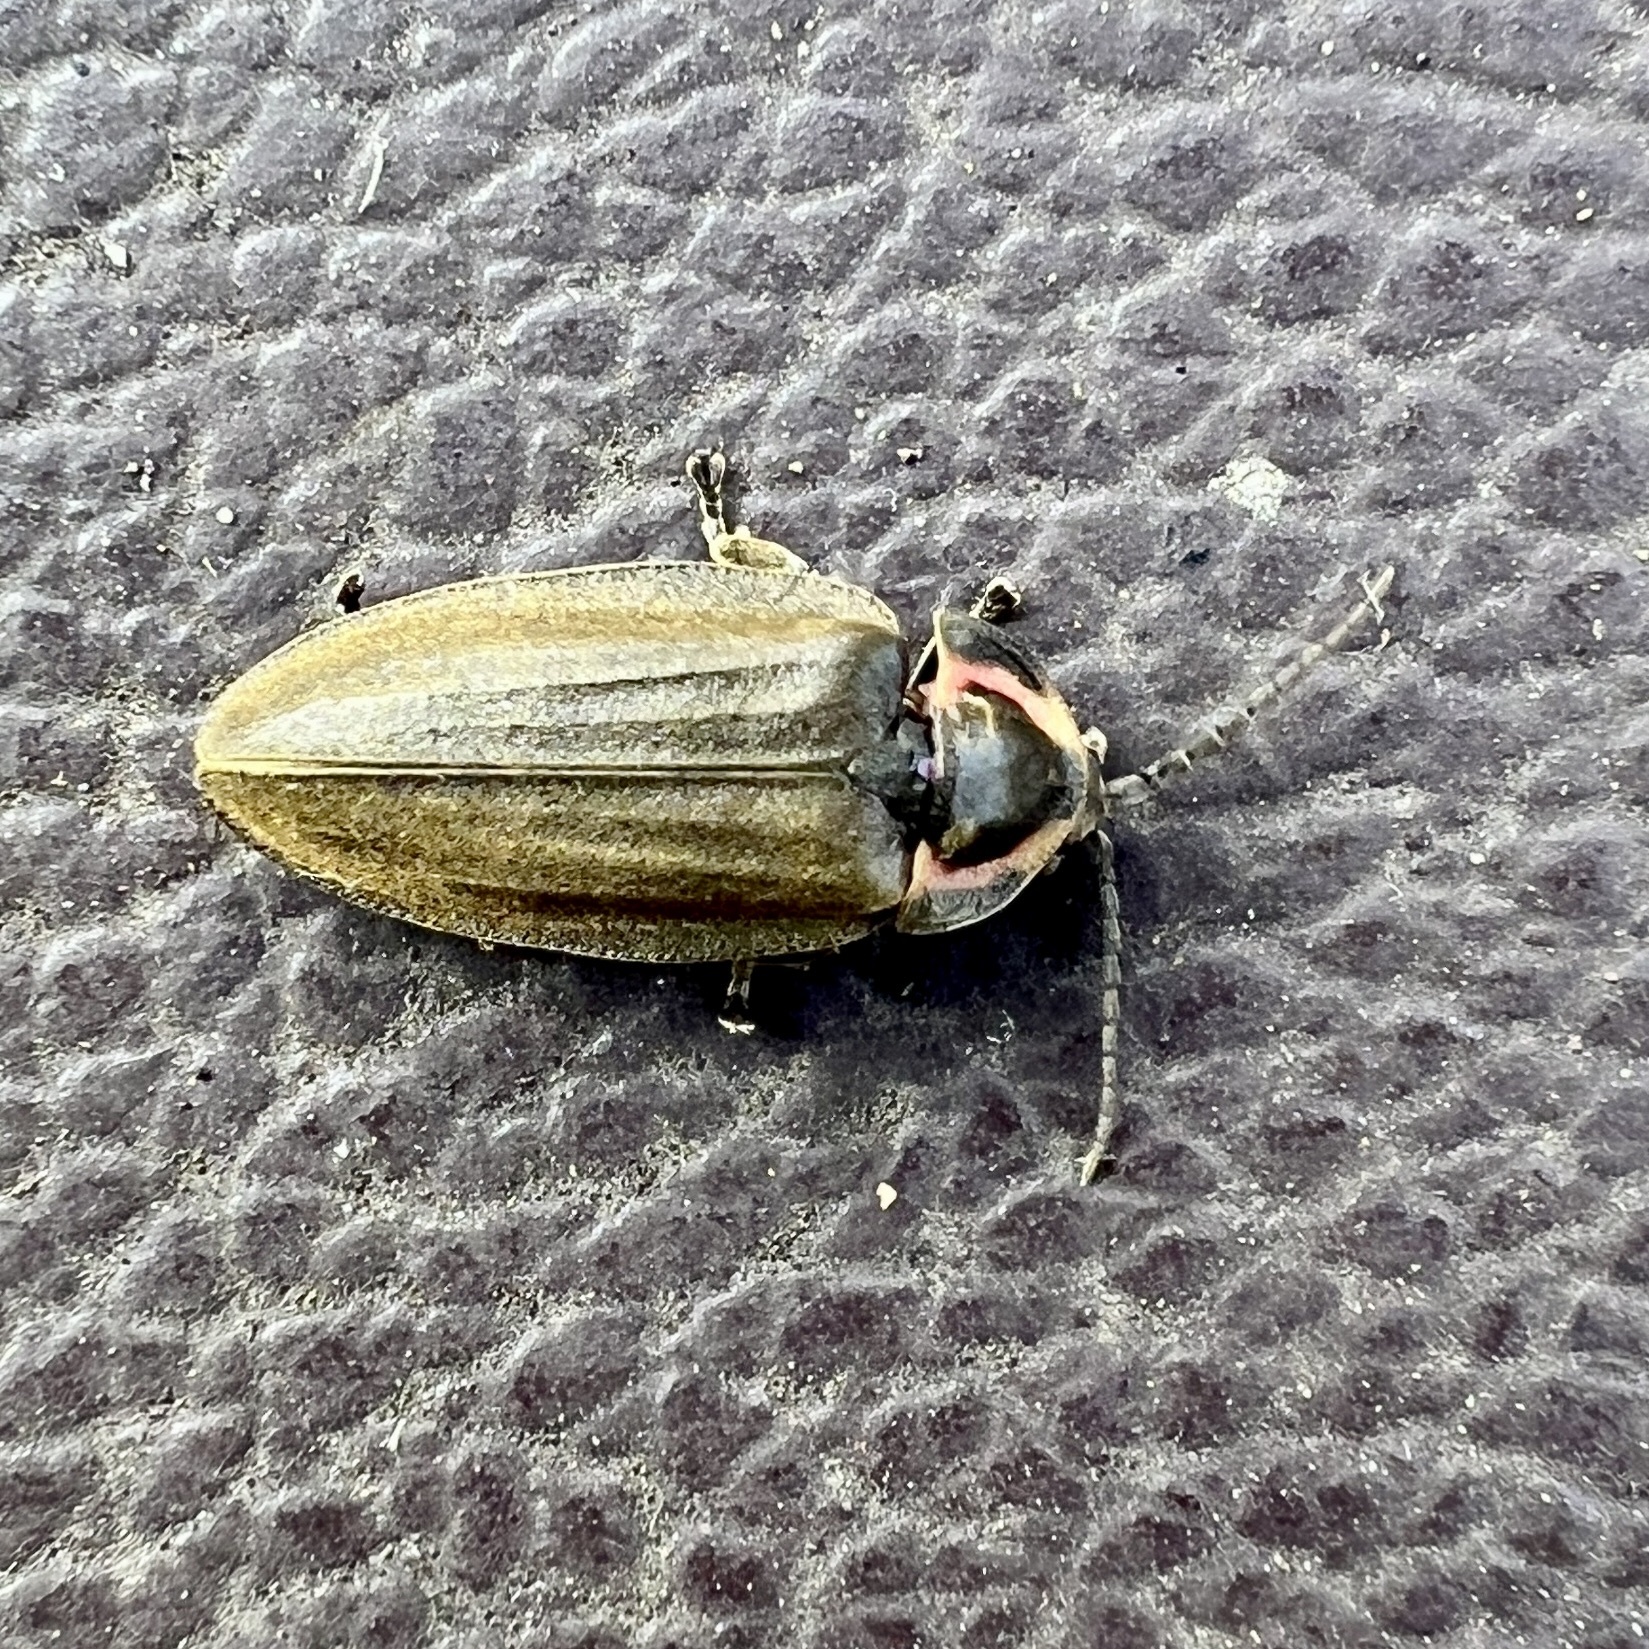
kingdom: Animalia
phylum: Arthropoda
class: Insecta
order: Coleoptera
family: Lampyridae
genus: Photinus
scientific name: Photinus corrusca
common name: Winter firefly
